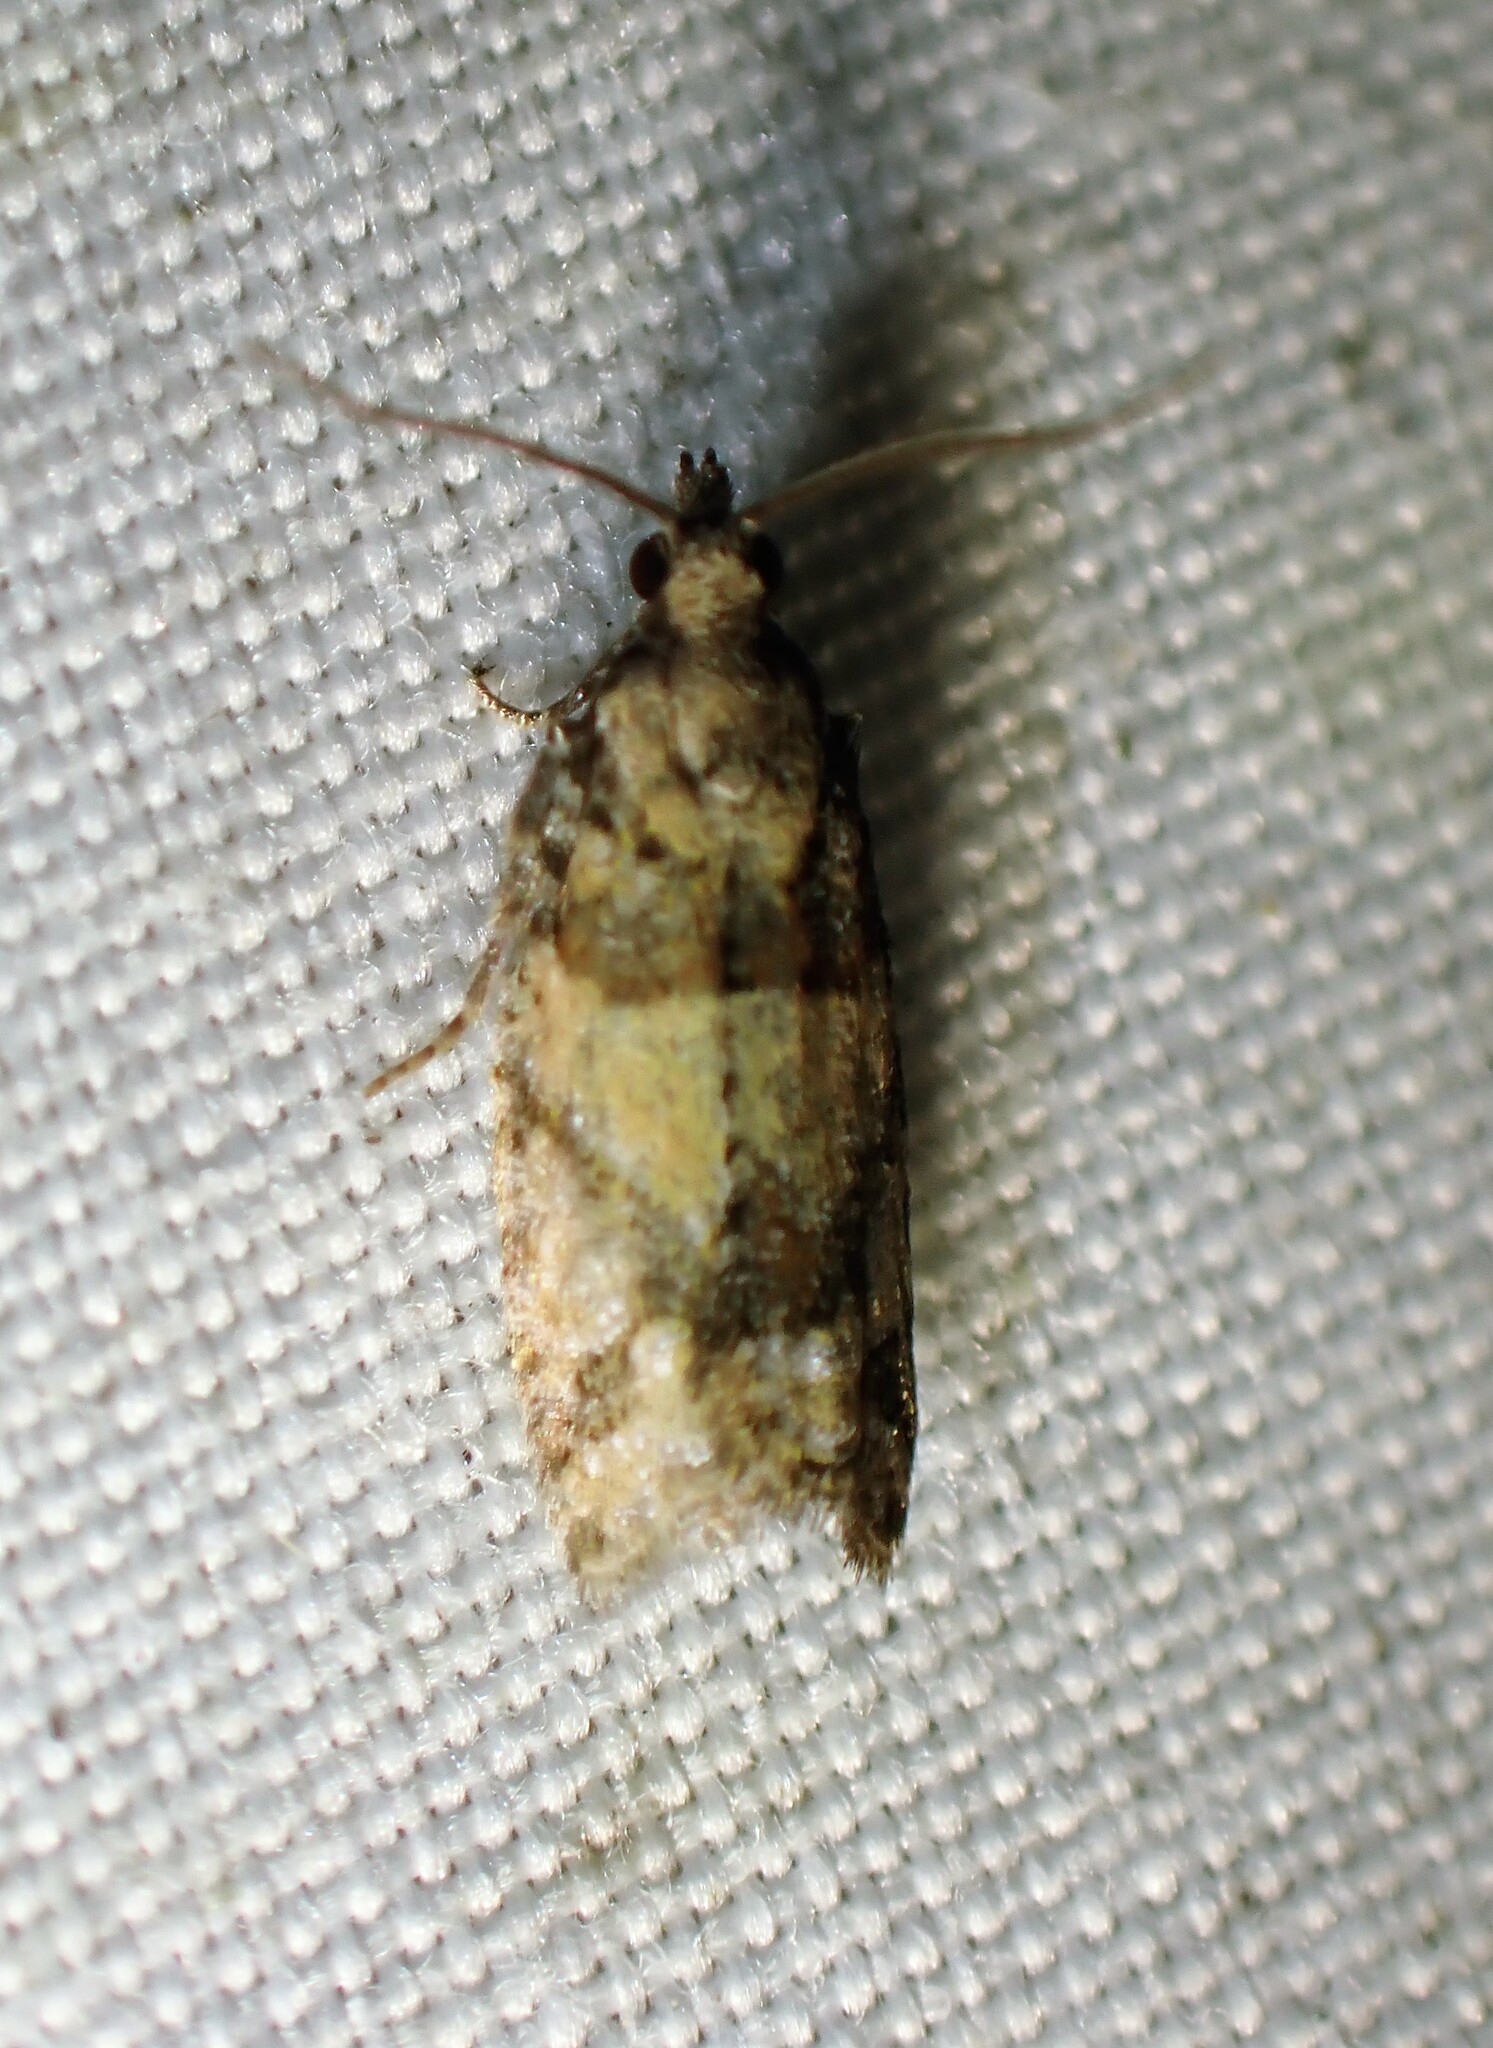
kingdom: Animalia
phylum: Arthropoda
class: Insecta
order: Lepidoptera
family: Tortricidae
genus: Epinotia
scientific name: Epinotia radicana
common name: Red-striped needleworm moth
